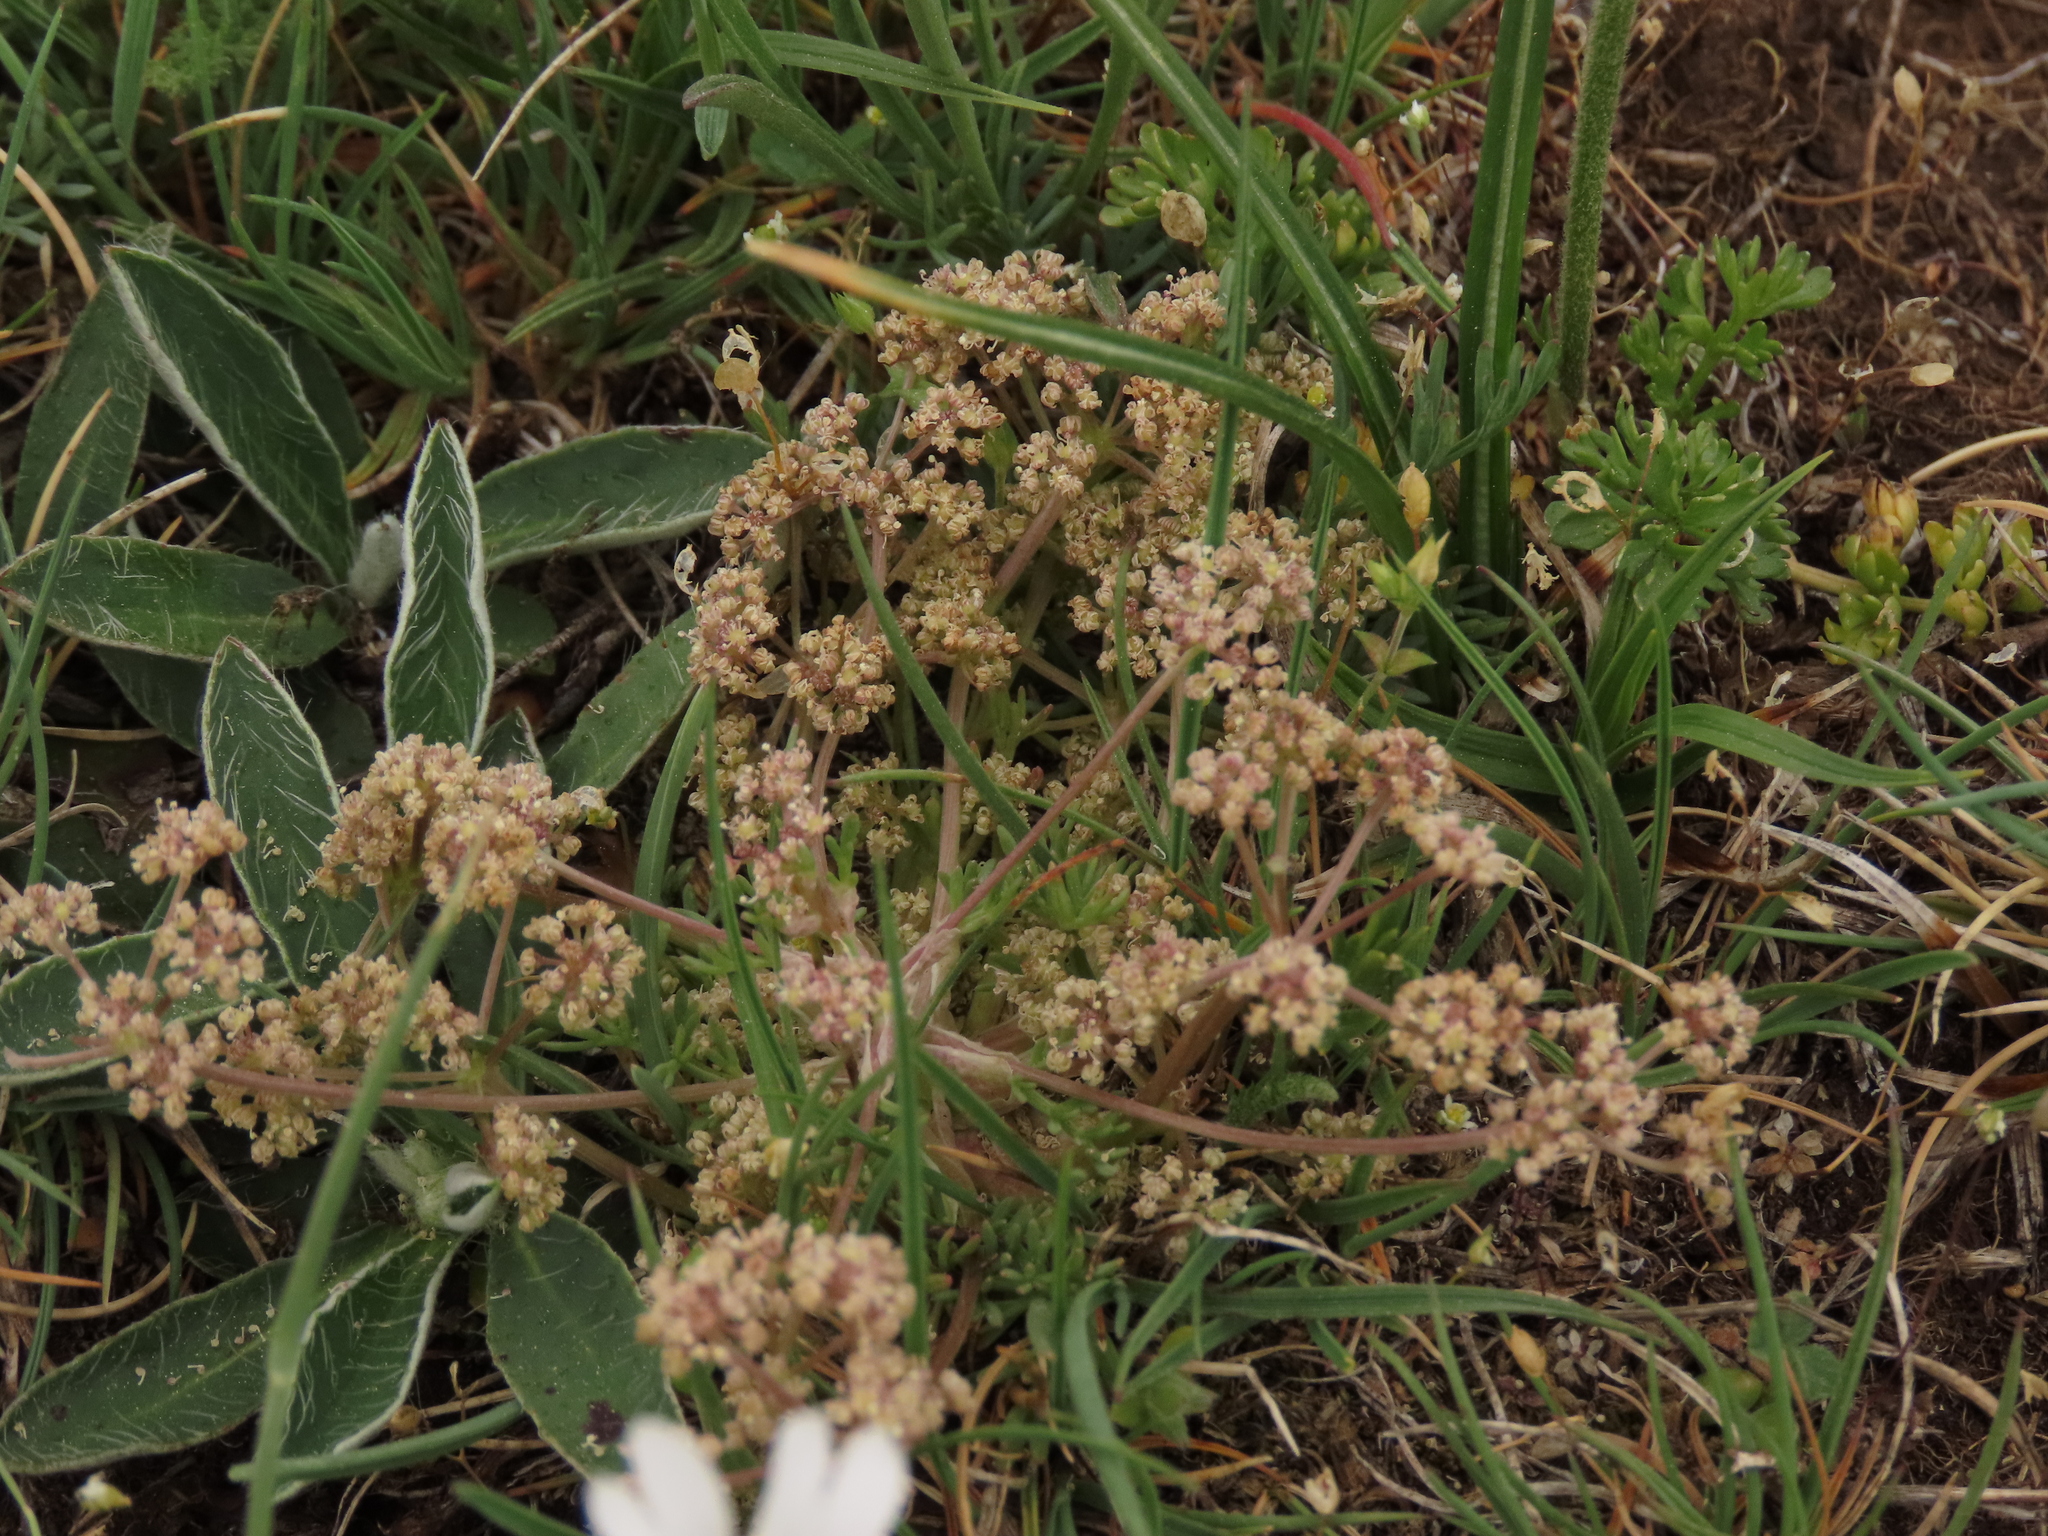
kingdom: Plantae
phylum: Tracheophyta
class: Magnoliopsida
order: Apiales
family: Apiaceae
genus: Trinia
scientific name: Trinia dalechampii
